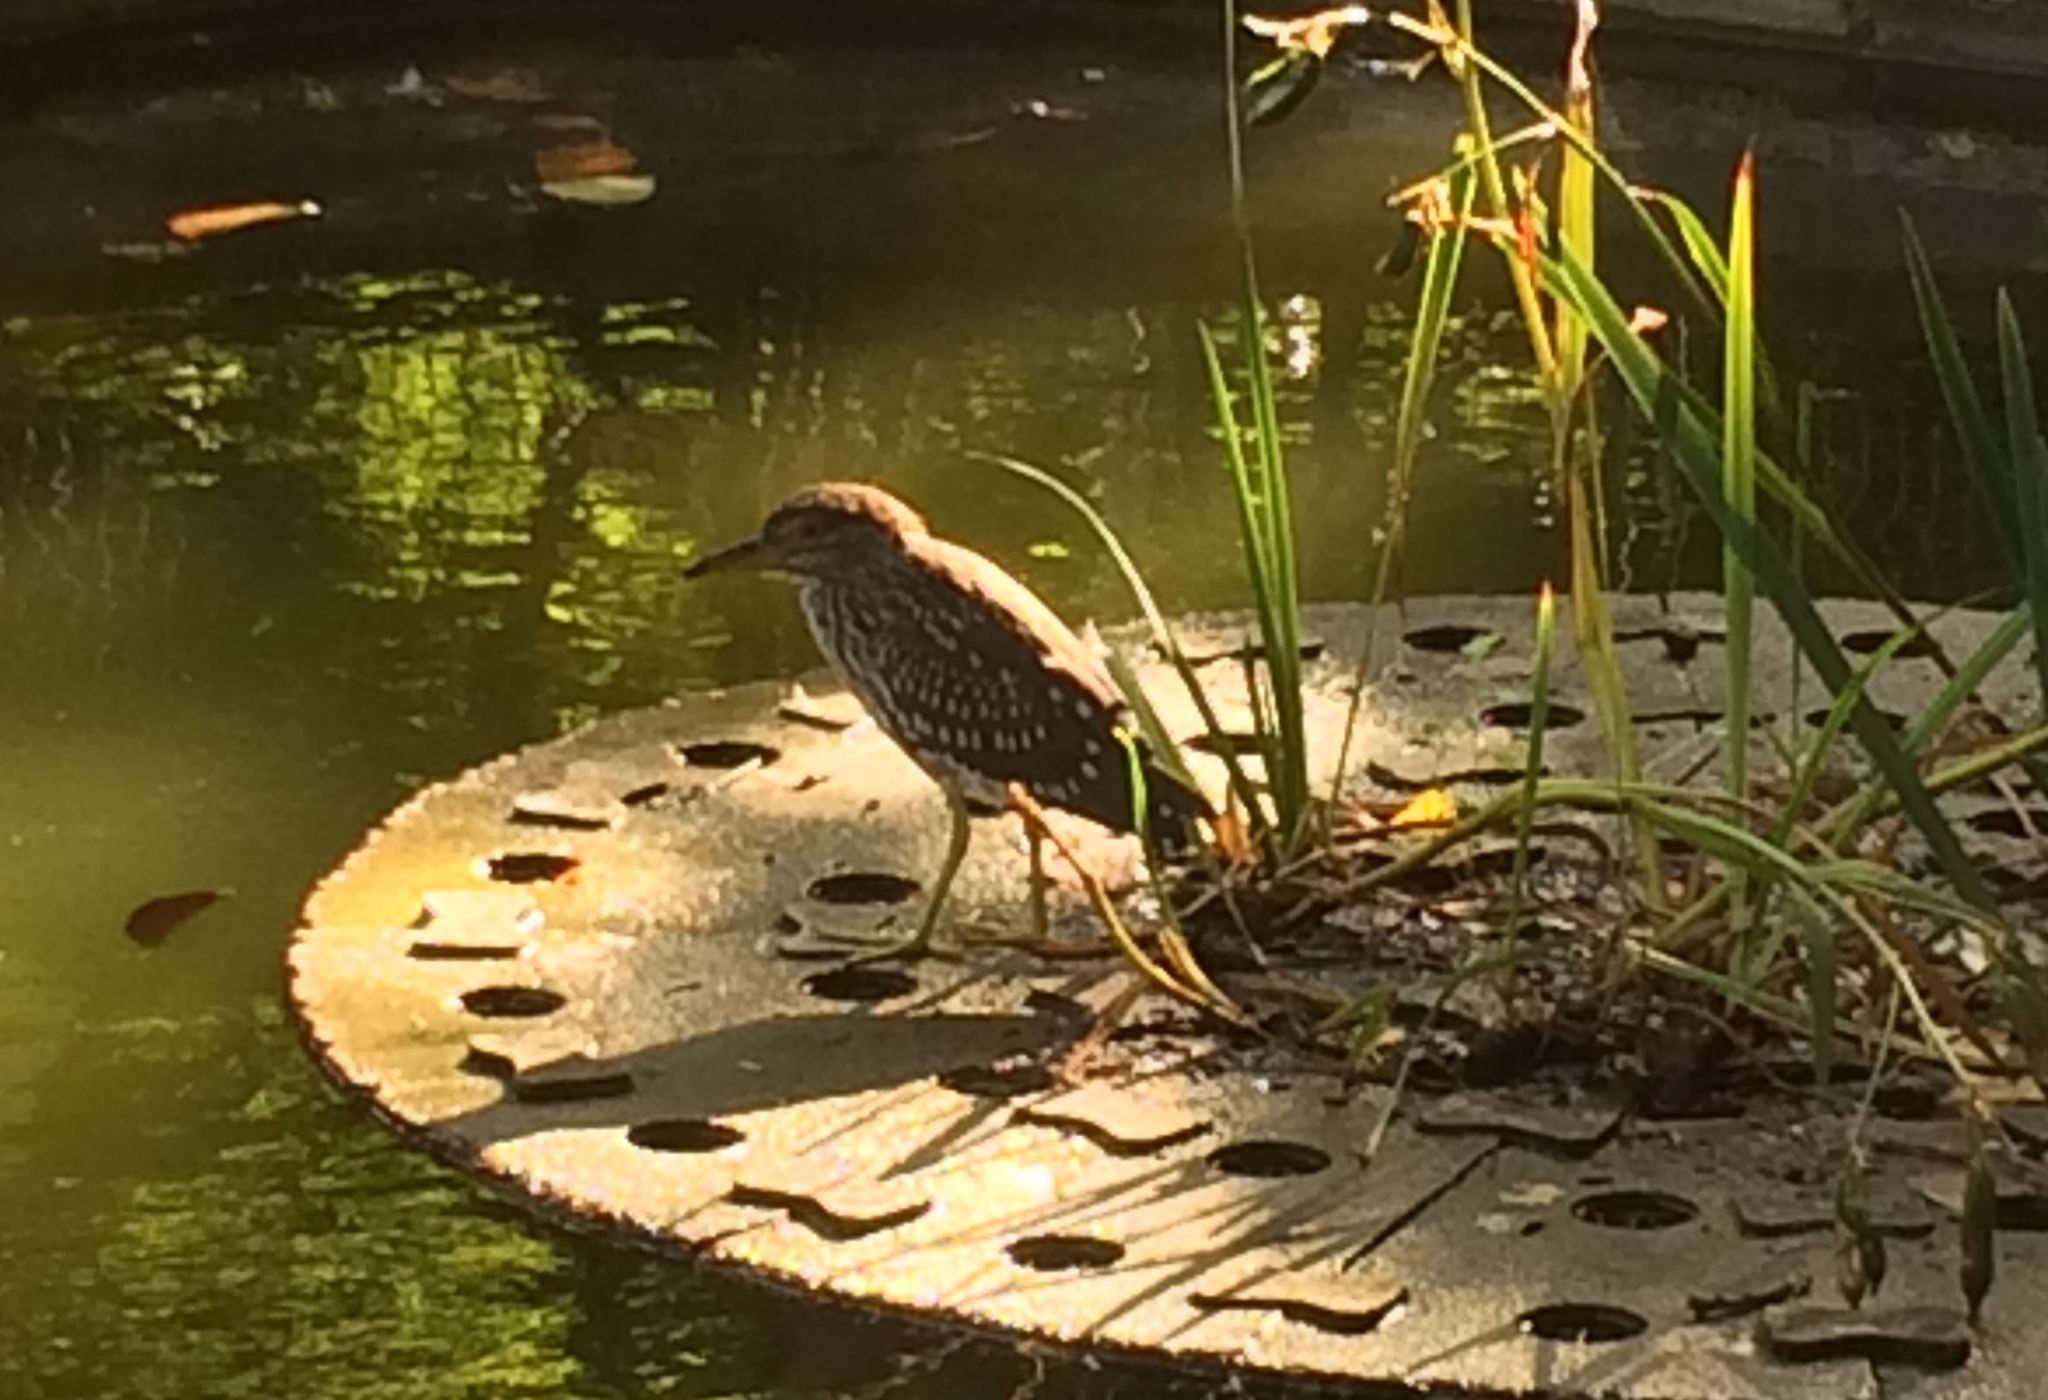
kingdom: Animalia
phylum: Chordata
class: Aves
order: Pelecaniformes
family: Ardeidae
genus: Nycticorax
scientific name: Nycticorax nycticorax
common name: Black-crowned night heron
